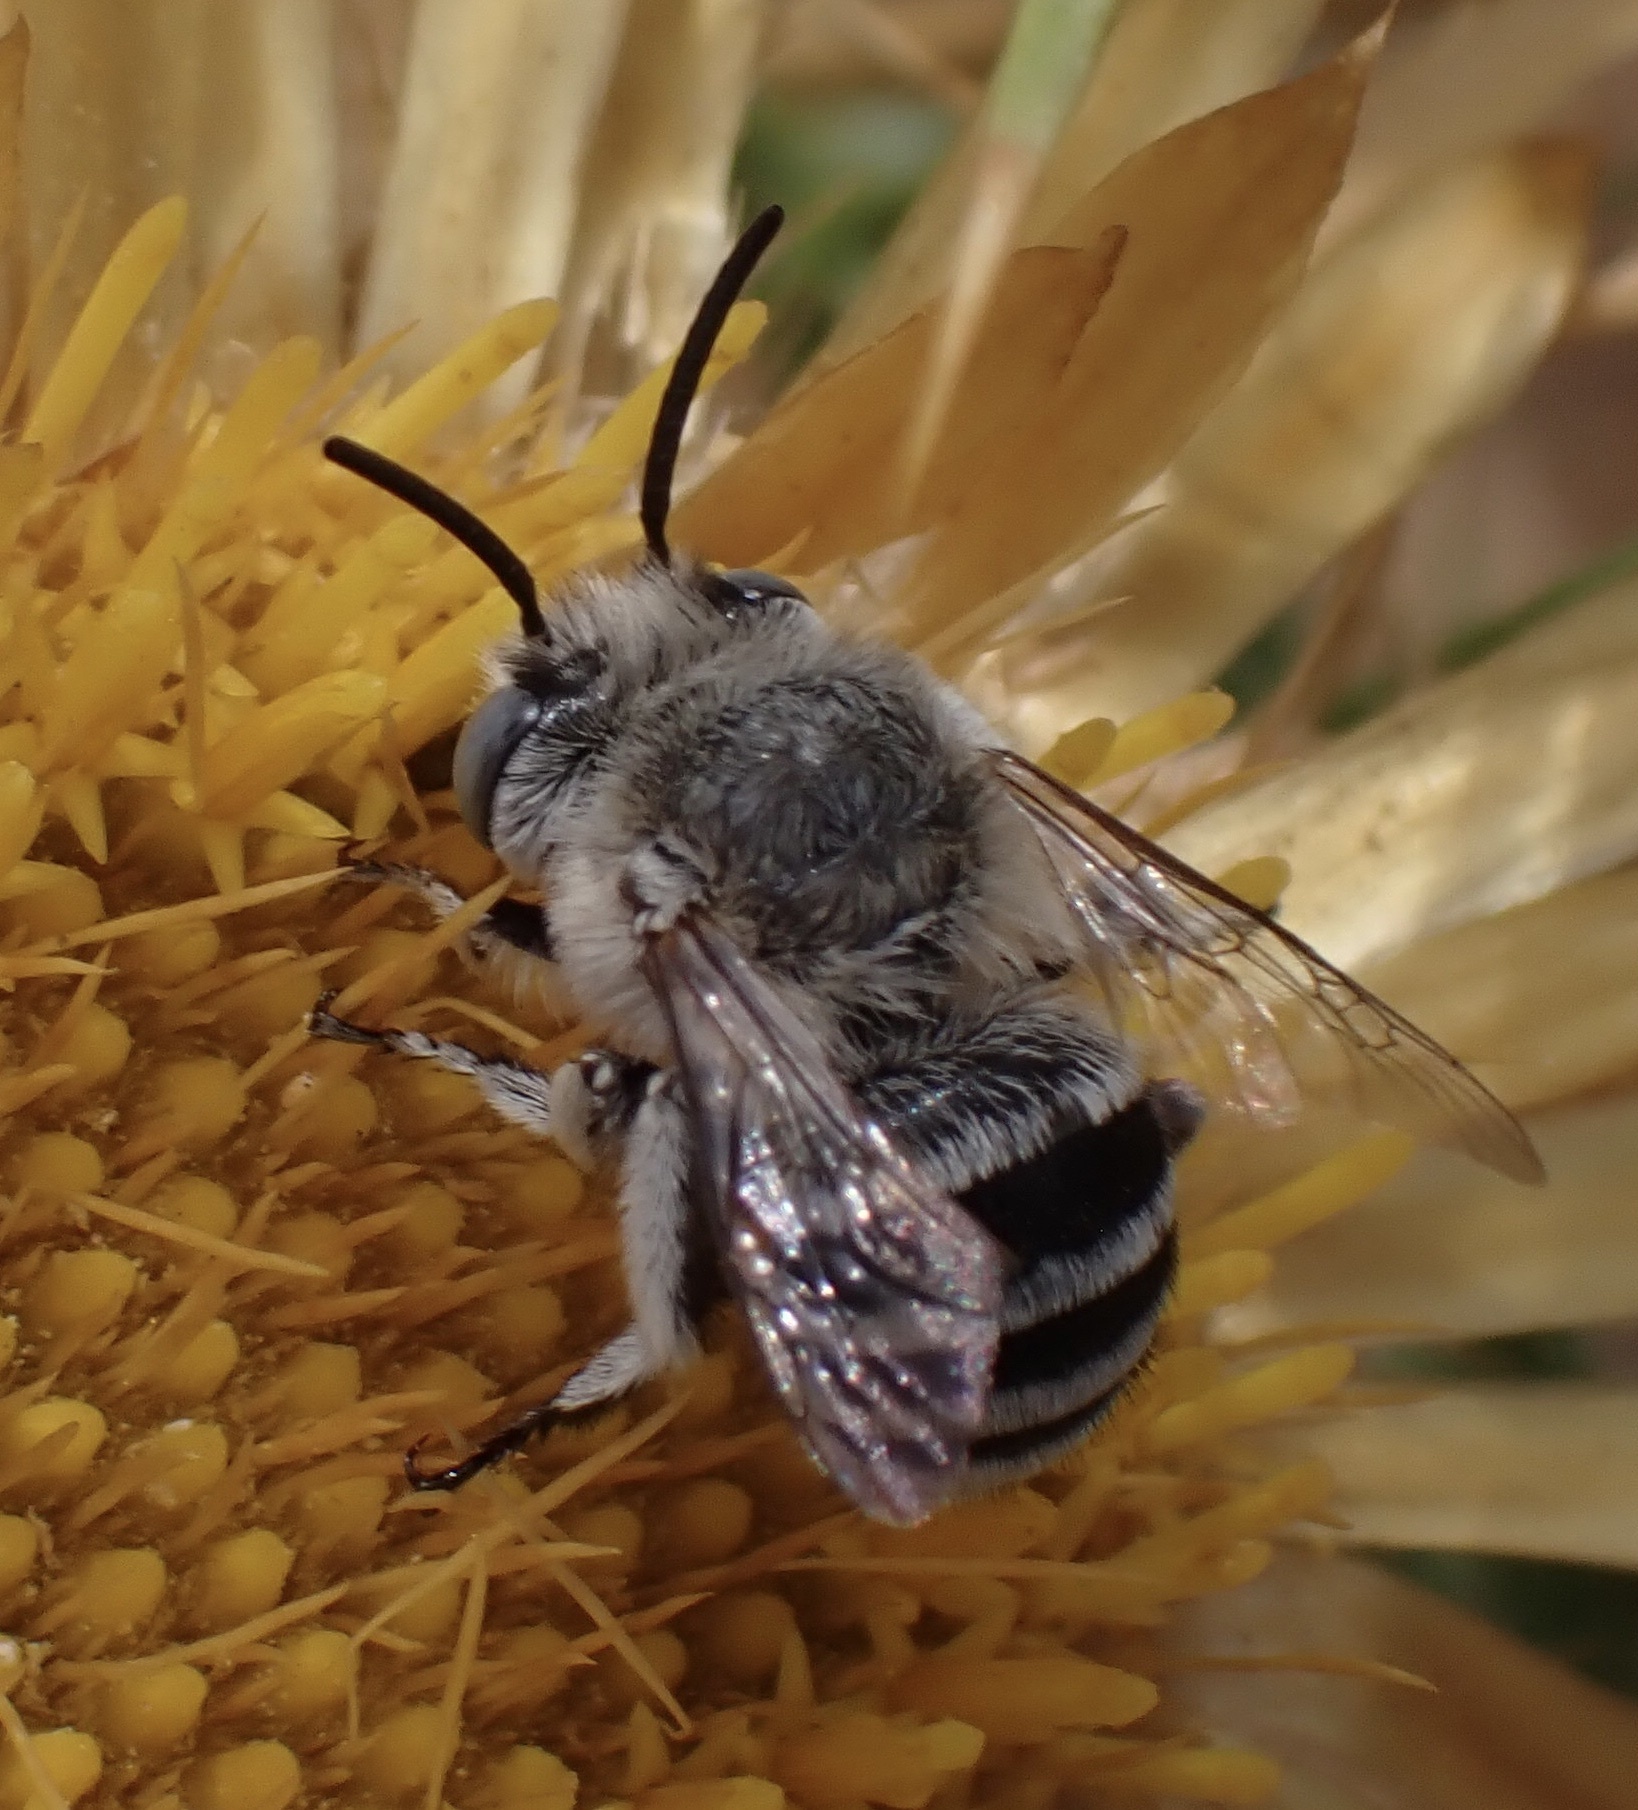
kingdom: Animalia
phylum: Arthropoda
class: Insecta
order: Hymenoptera
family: Apidae
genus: Amegilla
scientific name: Amegilla albigena
